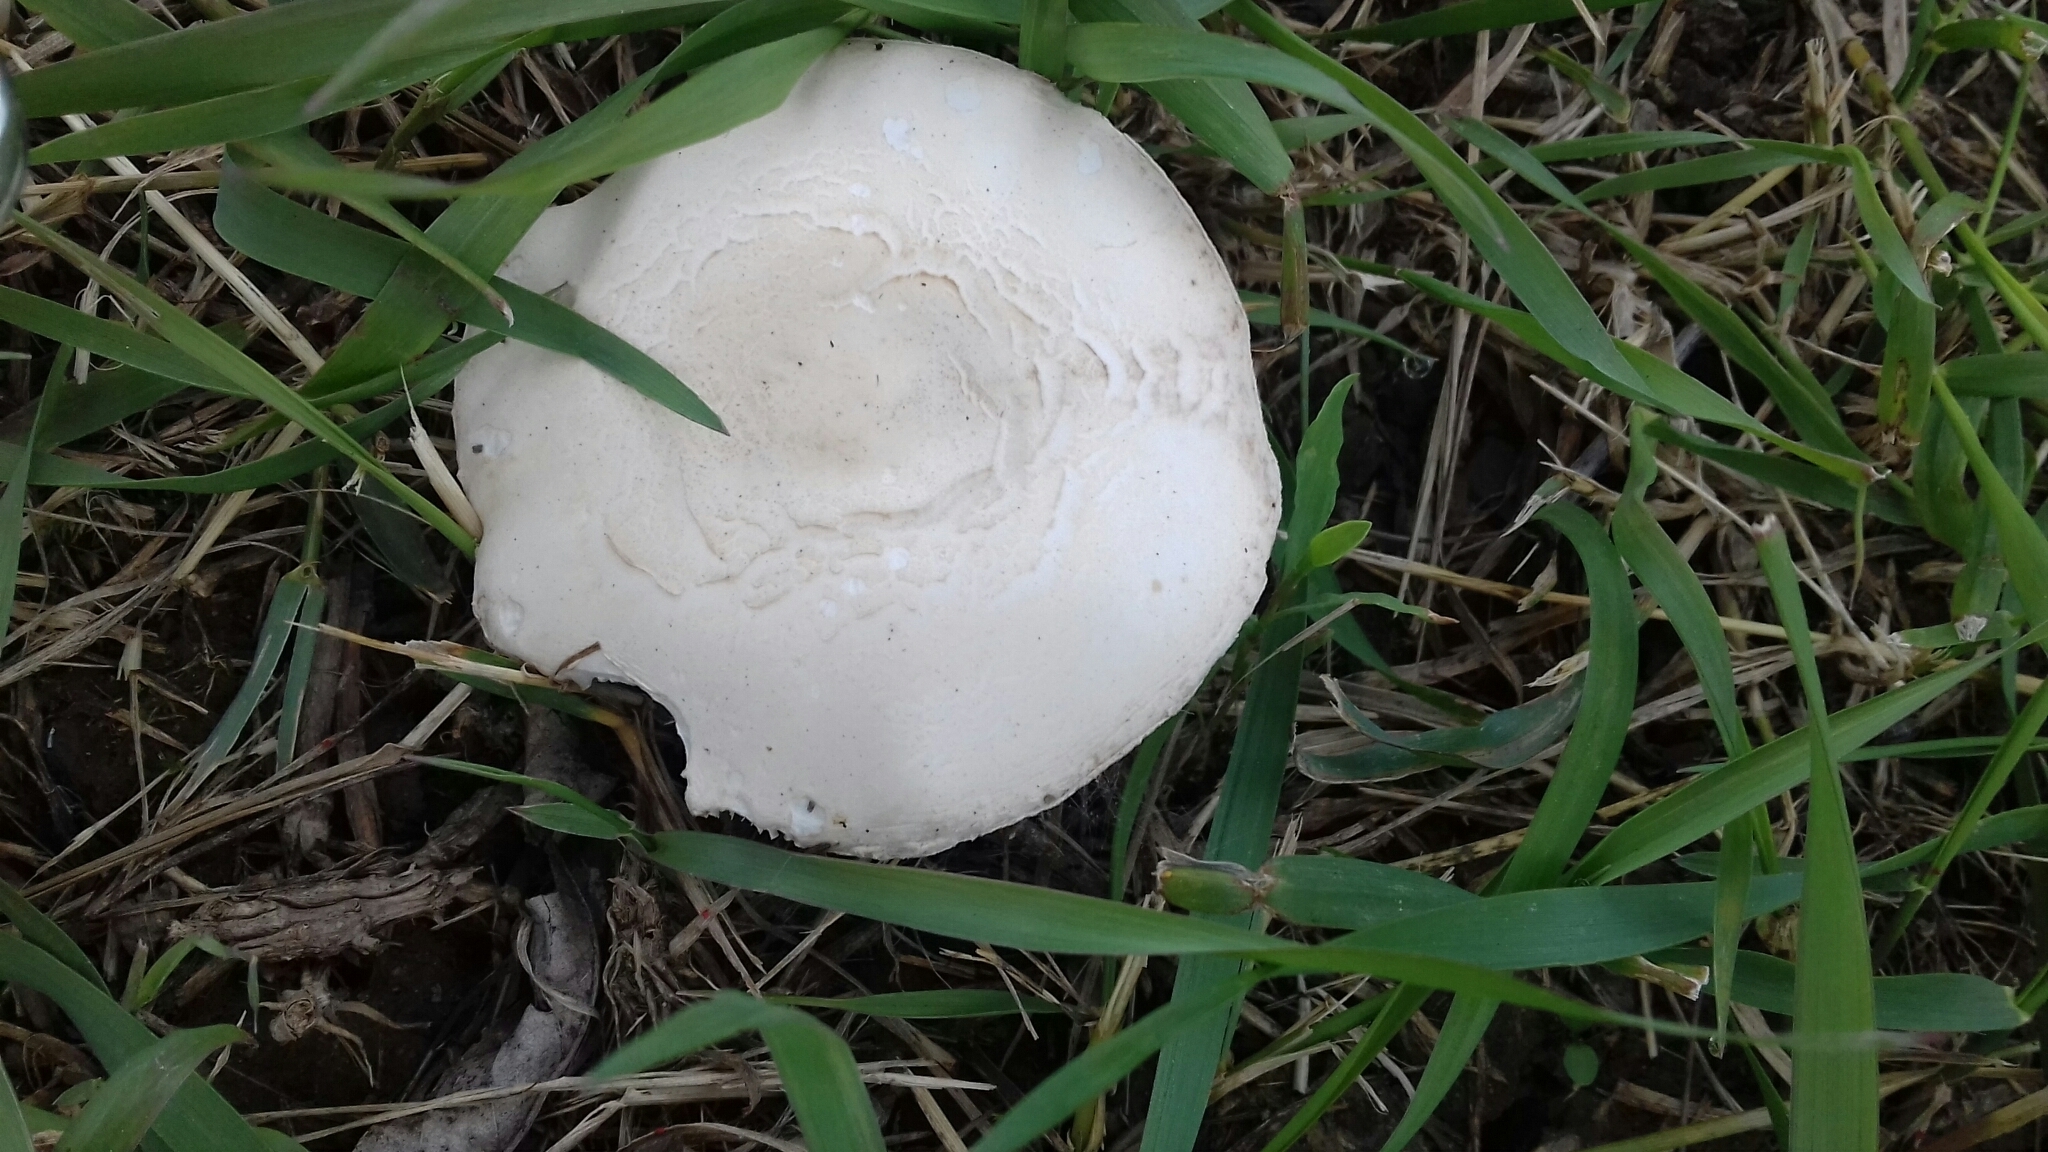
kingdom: Fungi
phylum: Basidiomycota
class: Agaricomycetes
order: Agaricales
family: Agaricaceae
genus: Leucoagaricus
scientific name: Leucoagaricus leucothites
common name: White dapperling
